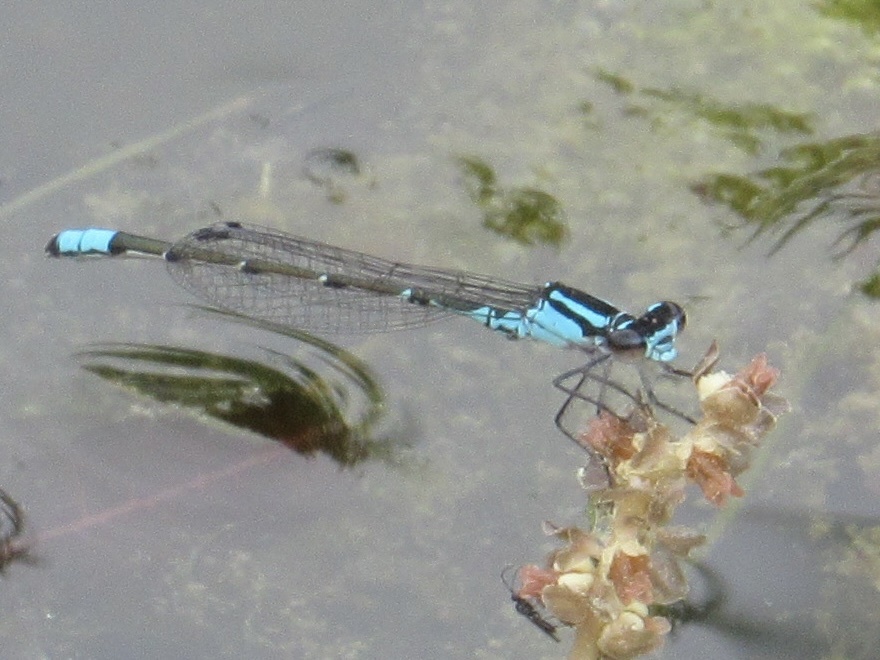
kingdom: Animalia
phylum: Arthropoda
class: Insecta
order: Odonata
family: Coenagrionidae
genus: Enallagma
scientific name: Enallagma geminatum
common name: Skimming bluet
